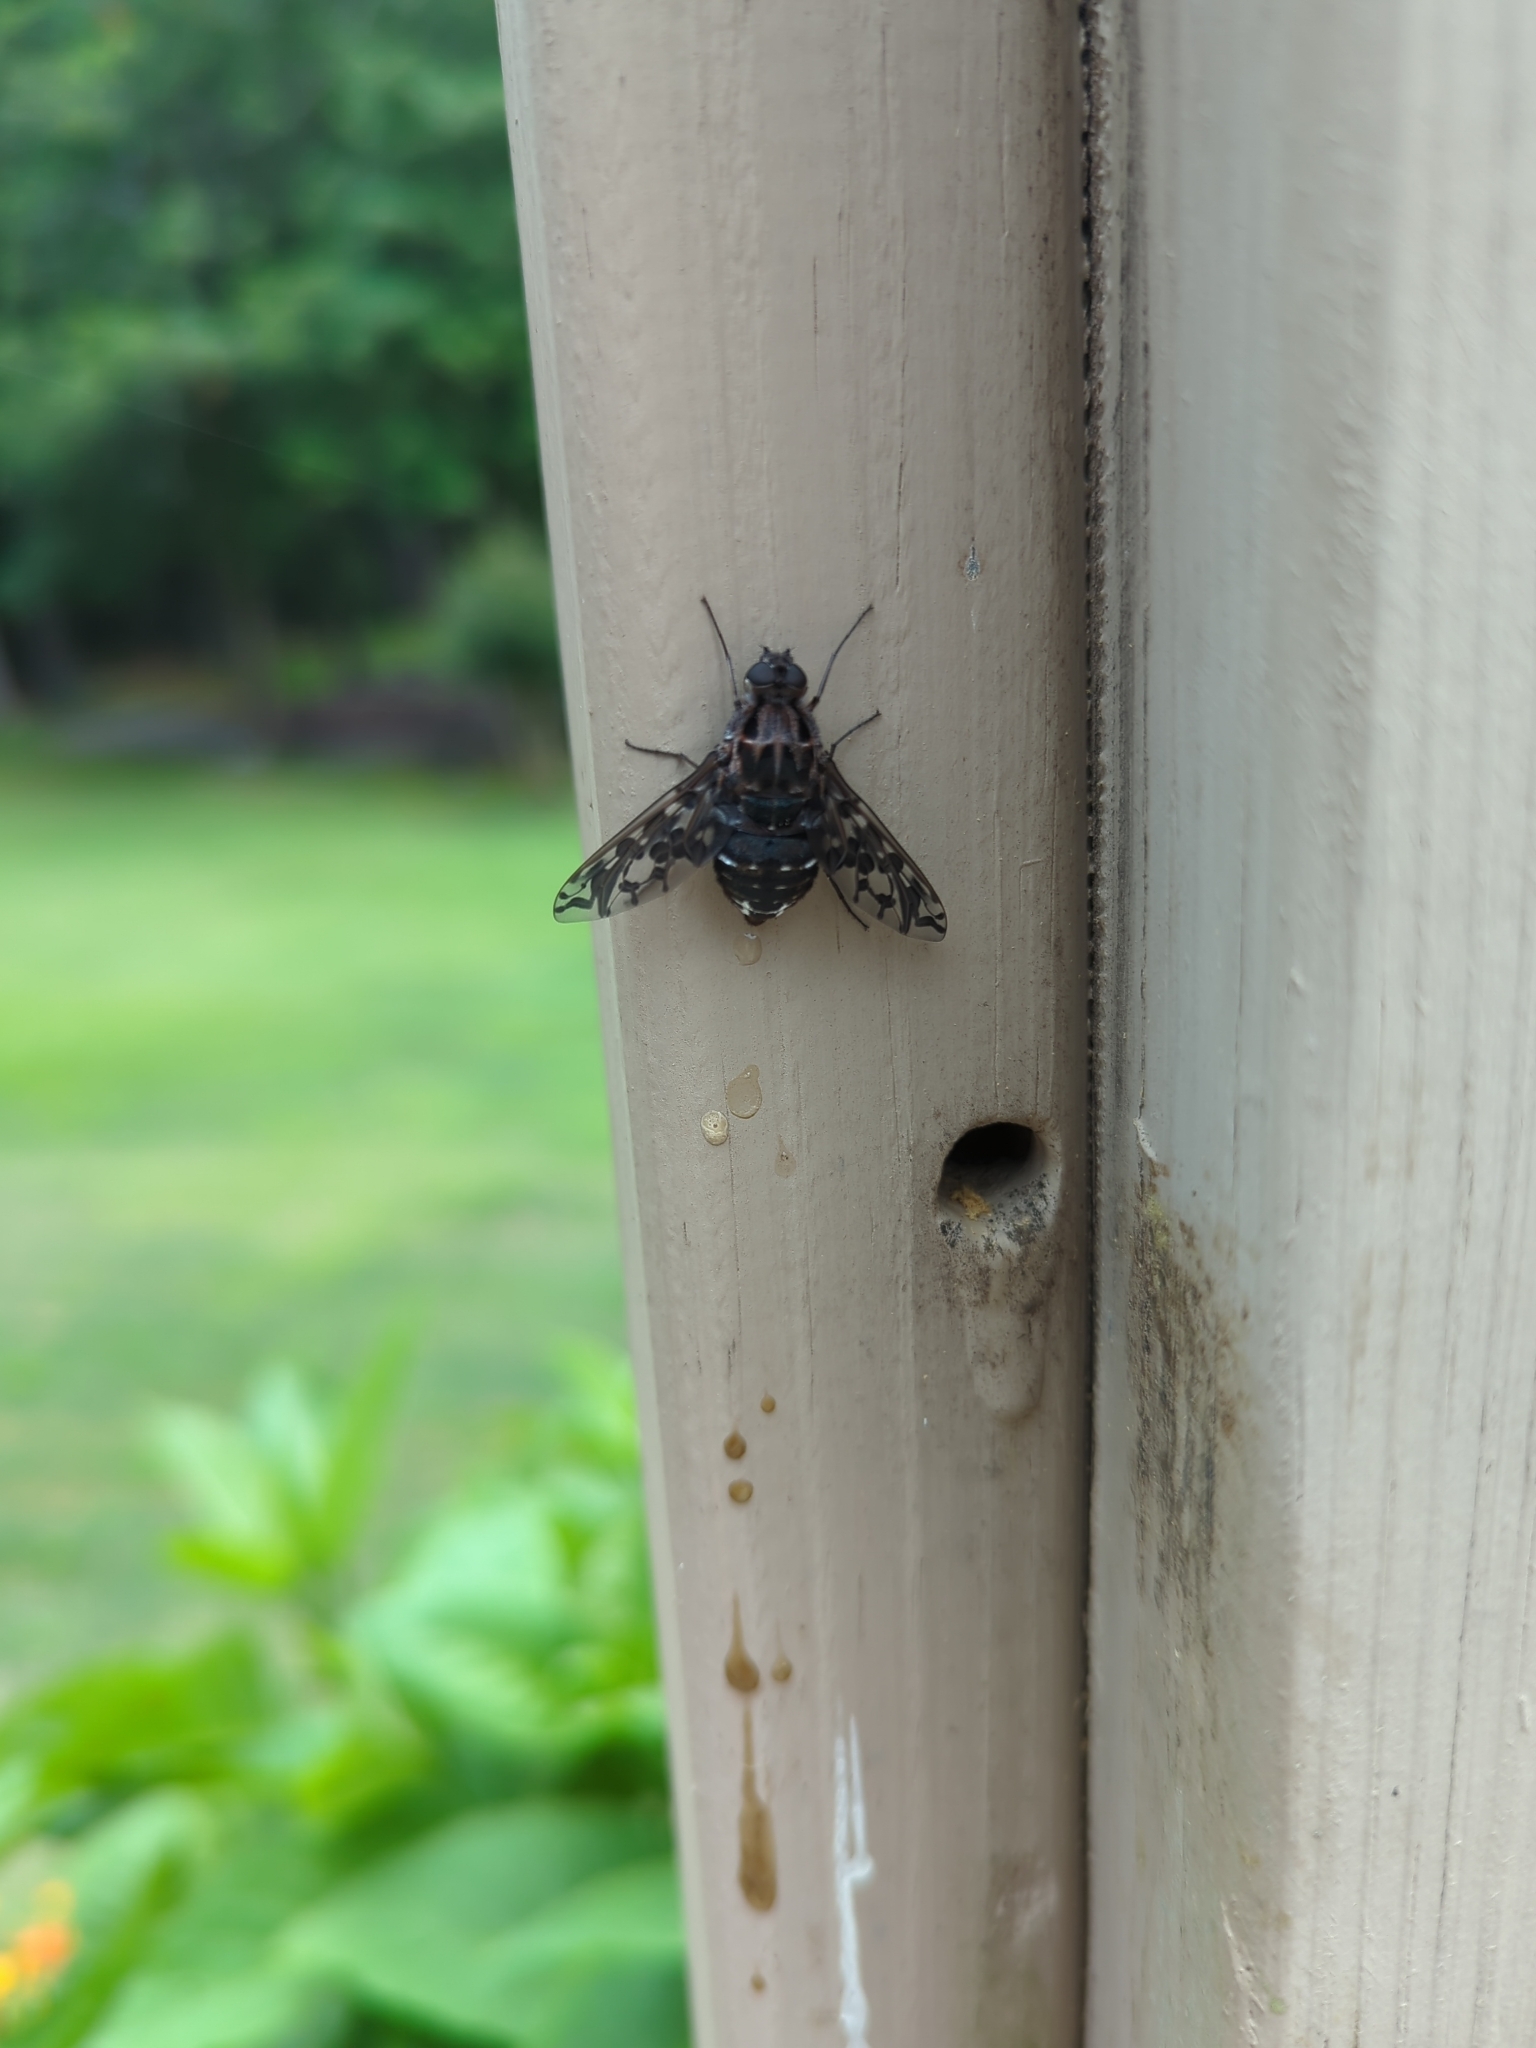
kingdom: Animalia
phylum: Arthropoda
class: Insecta
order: Diptera
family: Bombyliidae
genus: Xenox
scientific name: Xenox tigrinus
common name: Tiger bee fly
